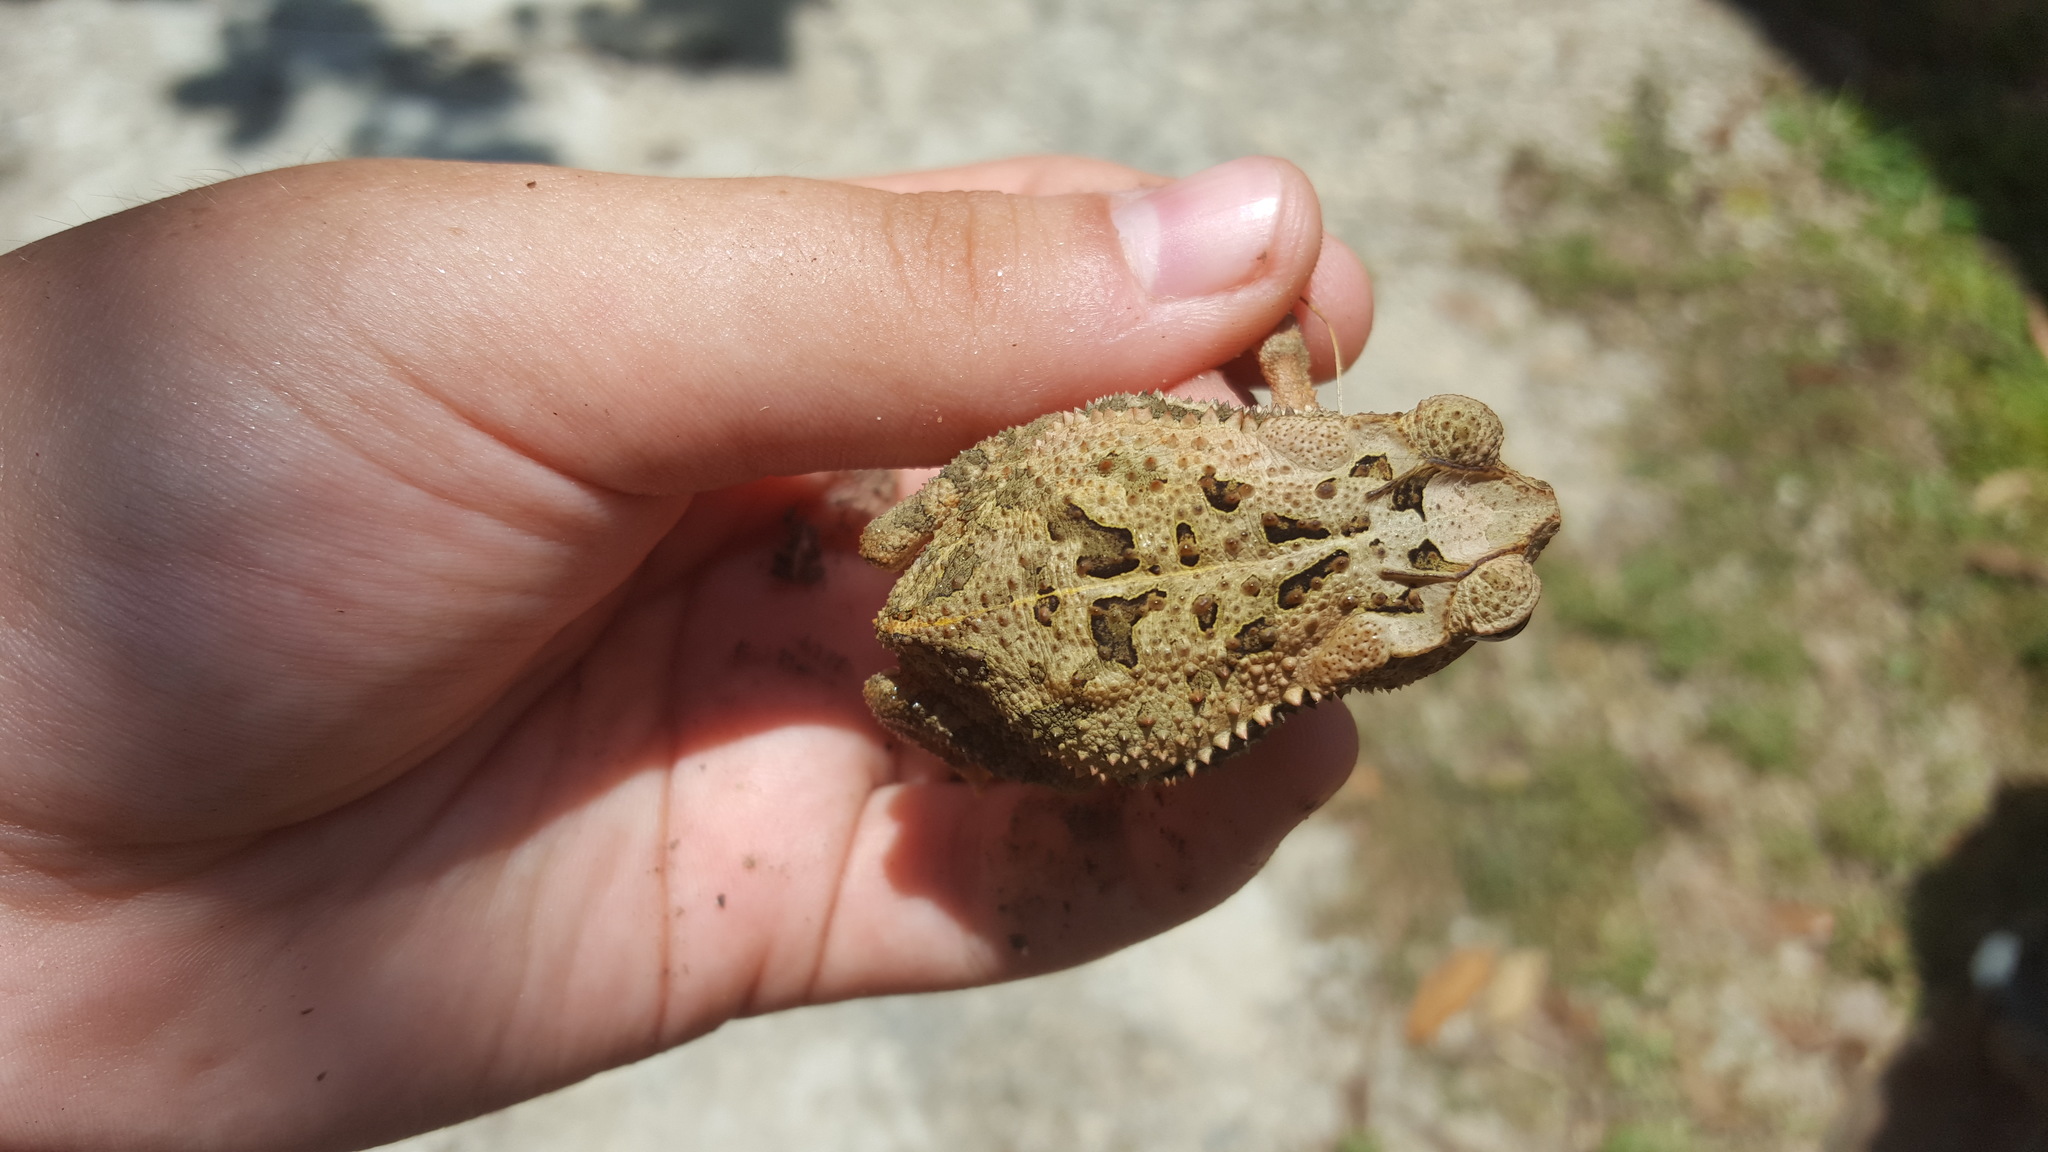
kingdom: Animalia
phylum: Chordata
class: Amphibia
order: Anura
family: Bufonidae
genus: Incilius
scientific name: Incilius valliceps
